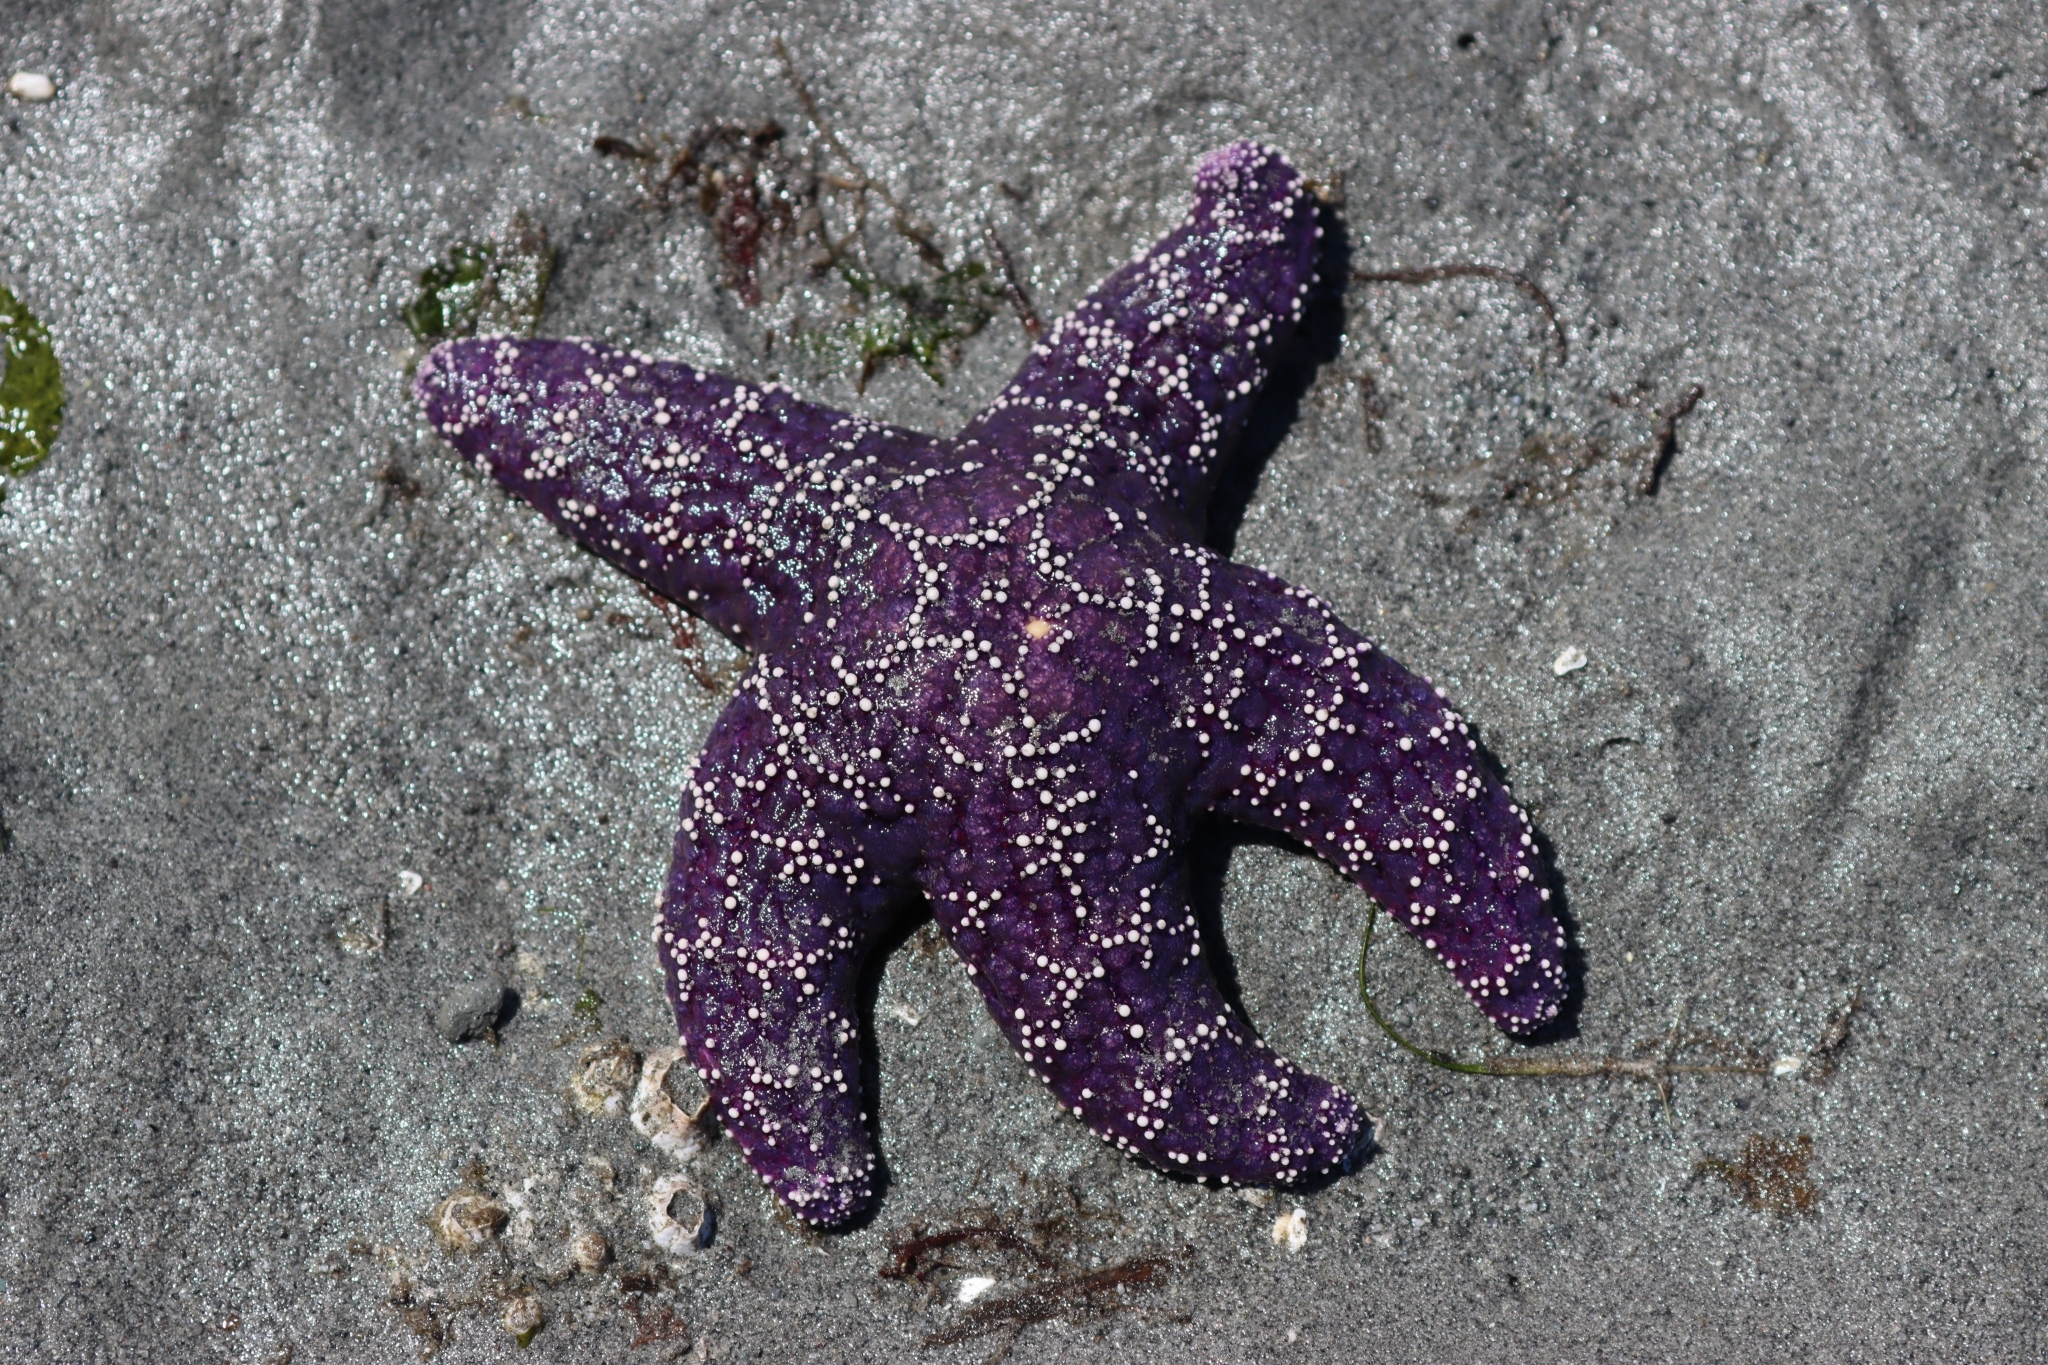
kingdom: Animalia
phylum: Echinodermata
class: Asteroidea
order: Forcipulatida
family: Asteriidae
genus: Pisaster
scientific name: Pisaster ochraceus
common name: Ochre stars
